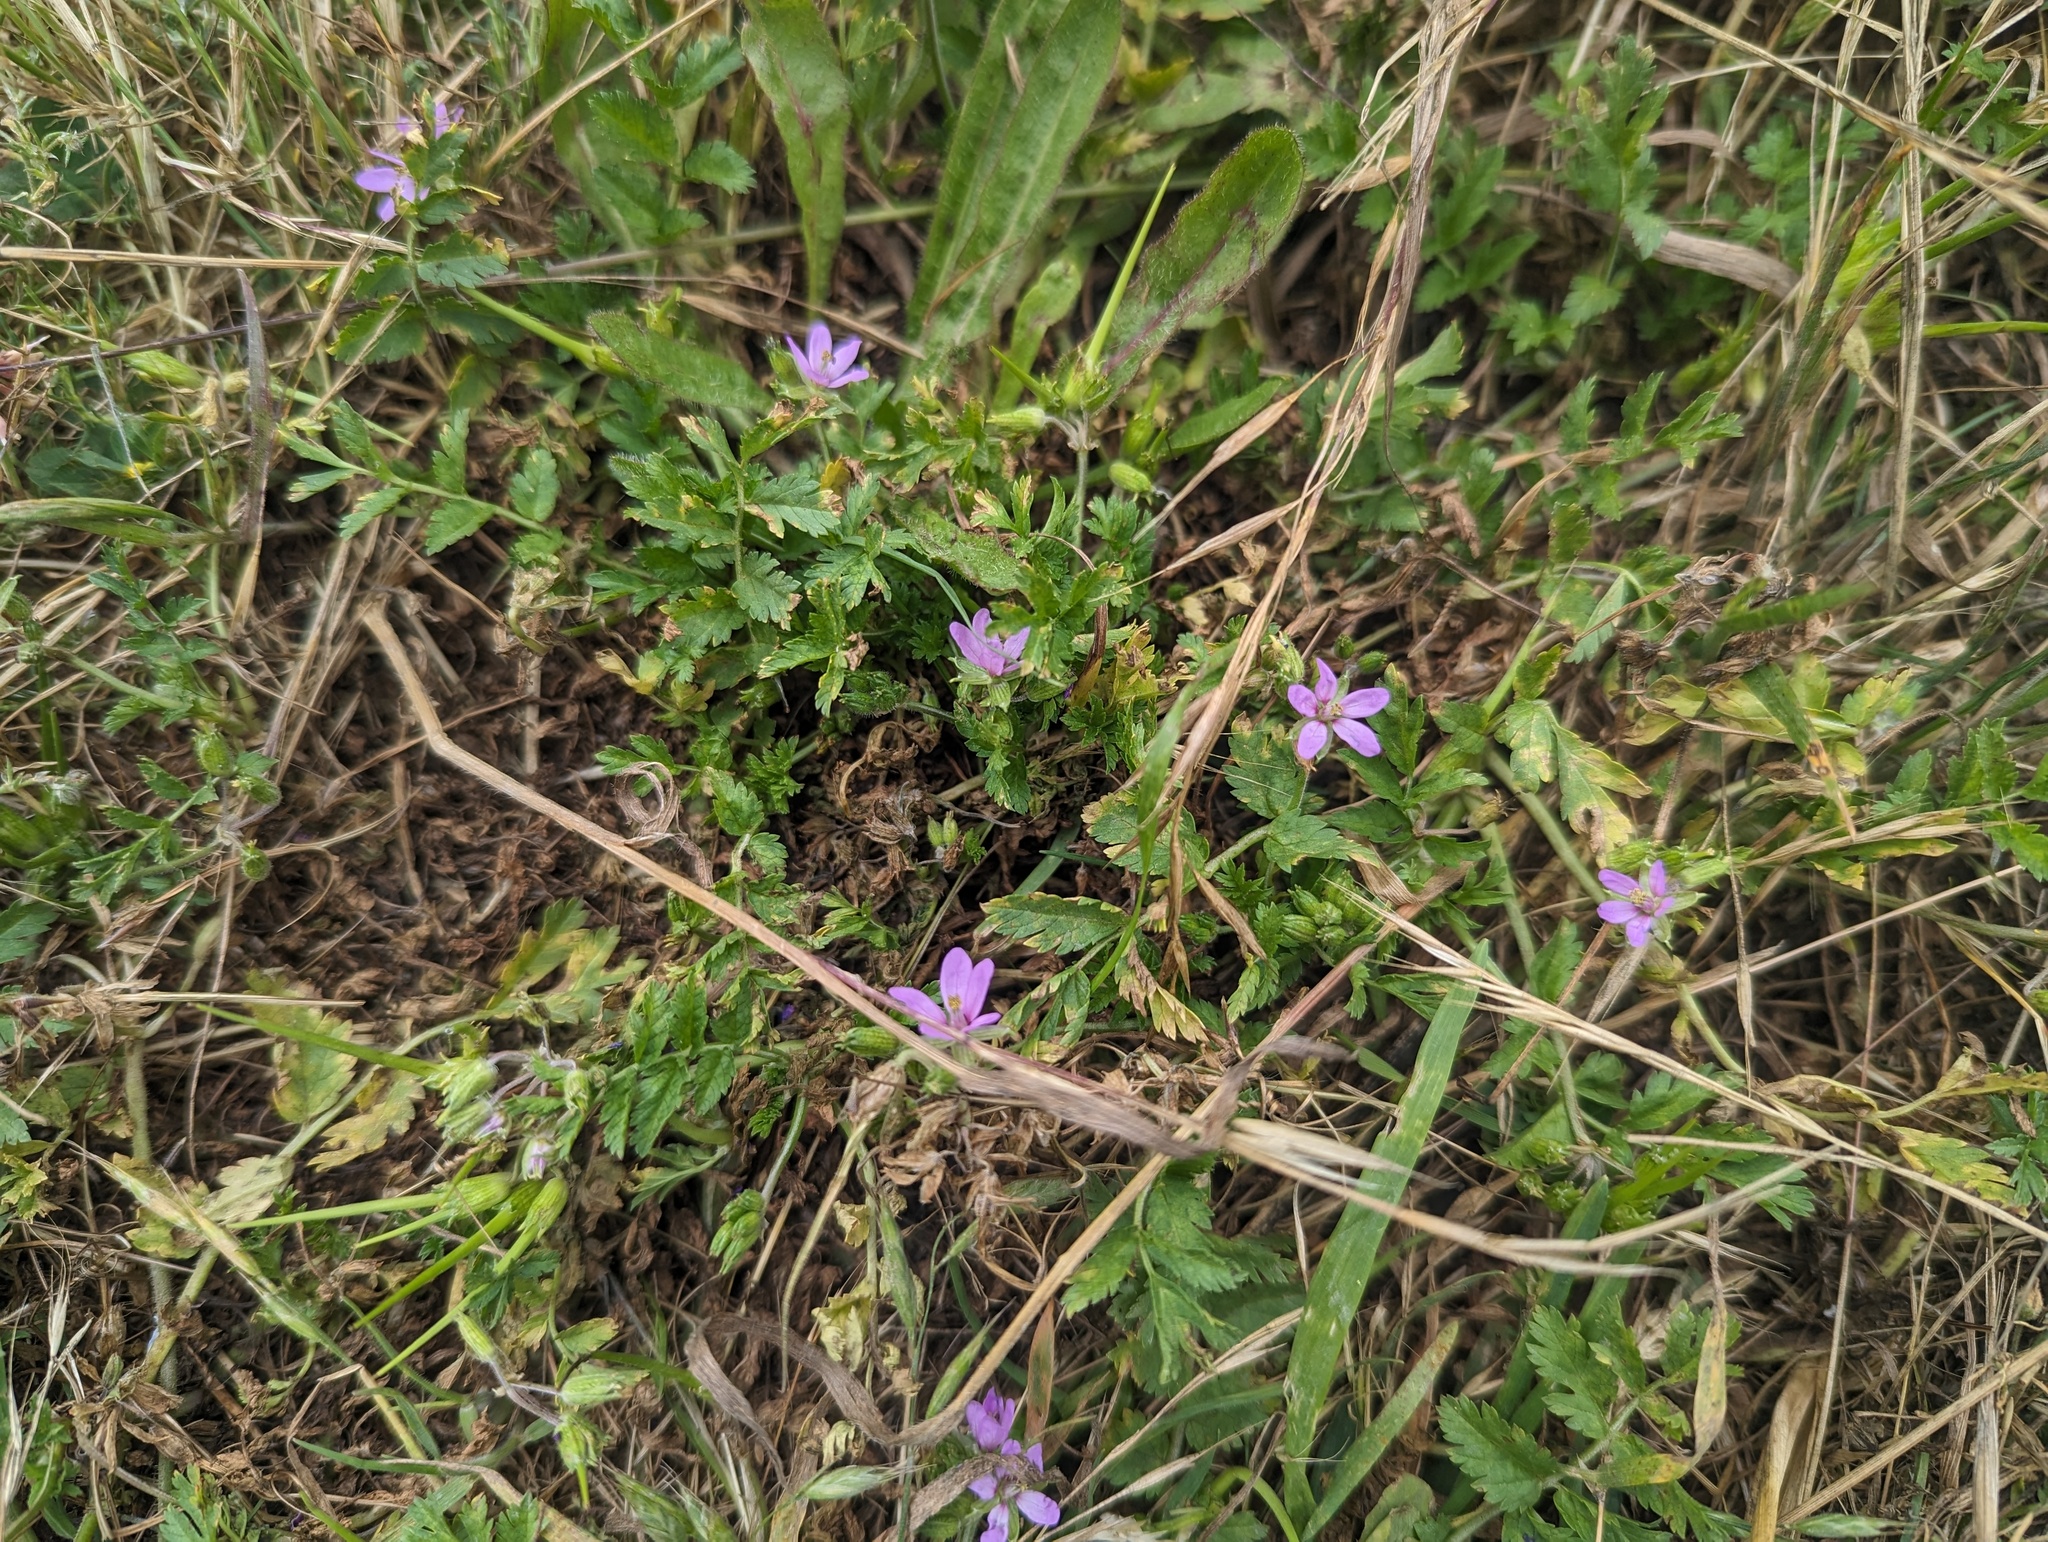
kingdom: Plantae
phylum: Tracheophyta
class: Magnoliopsida
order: Geraniales
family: Geraniaceae
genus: Erodium
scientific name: Erodium moschatum
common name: Musk stork's-bill
